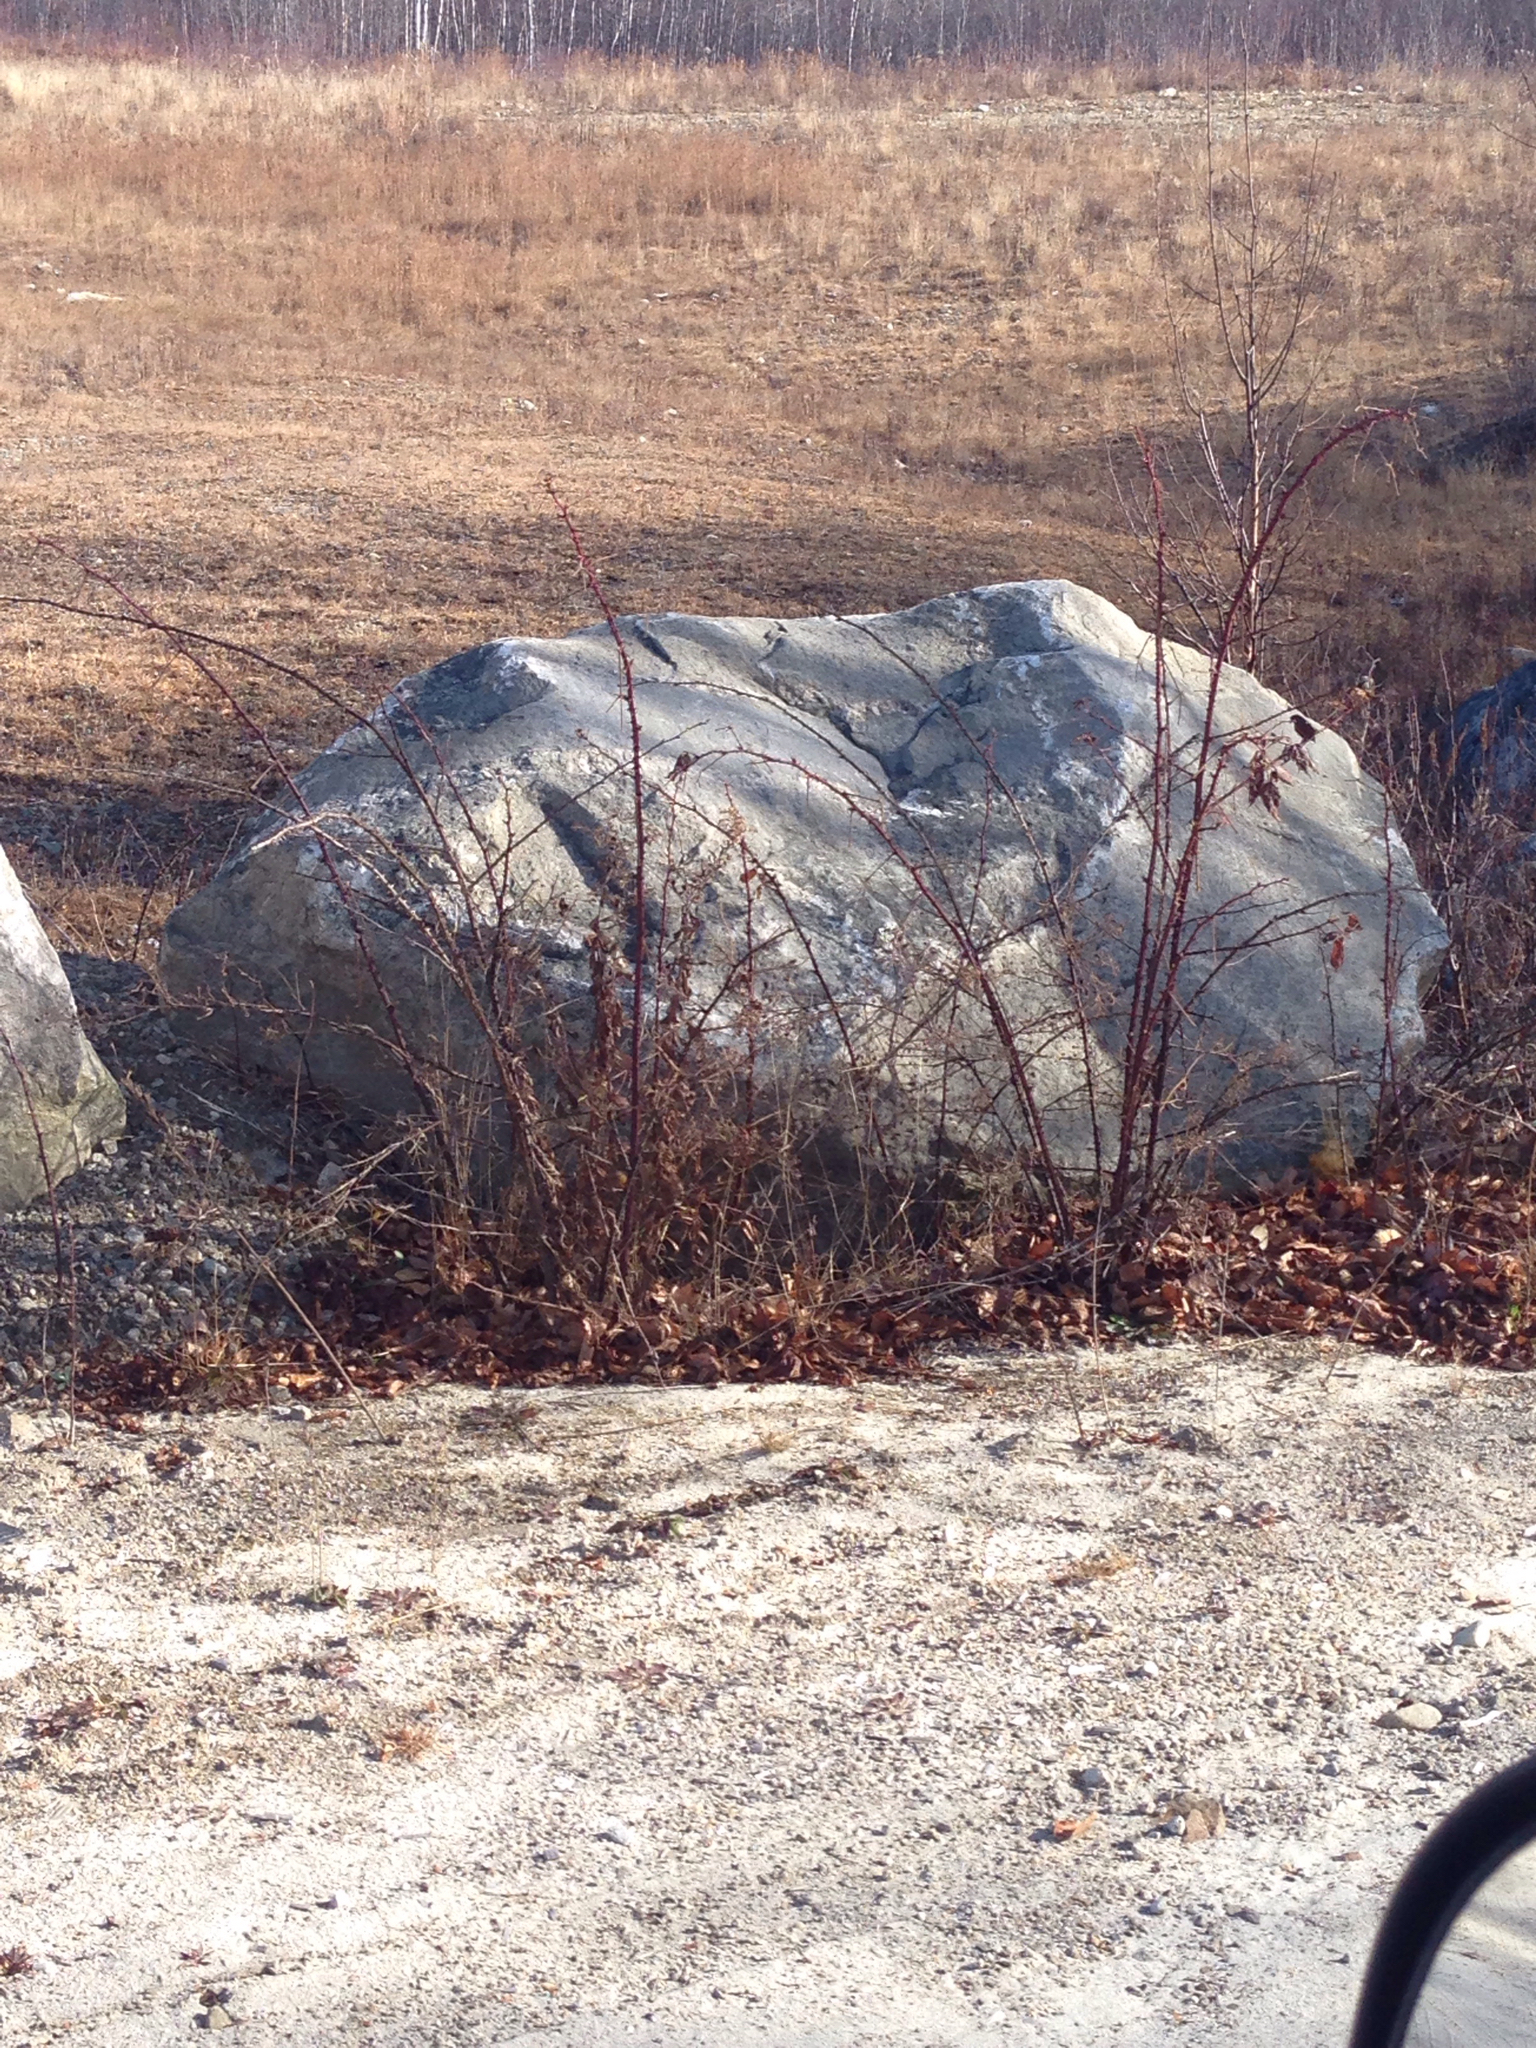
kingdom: Plantae
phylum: Tracheophyta
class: Magnoliopsida
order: Rosales
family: Rosaceae
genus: Rubus
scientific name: Rubus odoratus
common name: Purple-flowered raspberry
